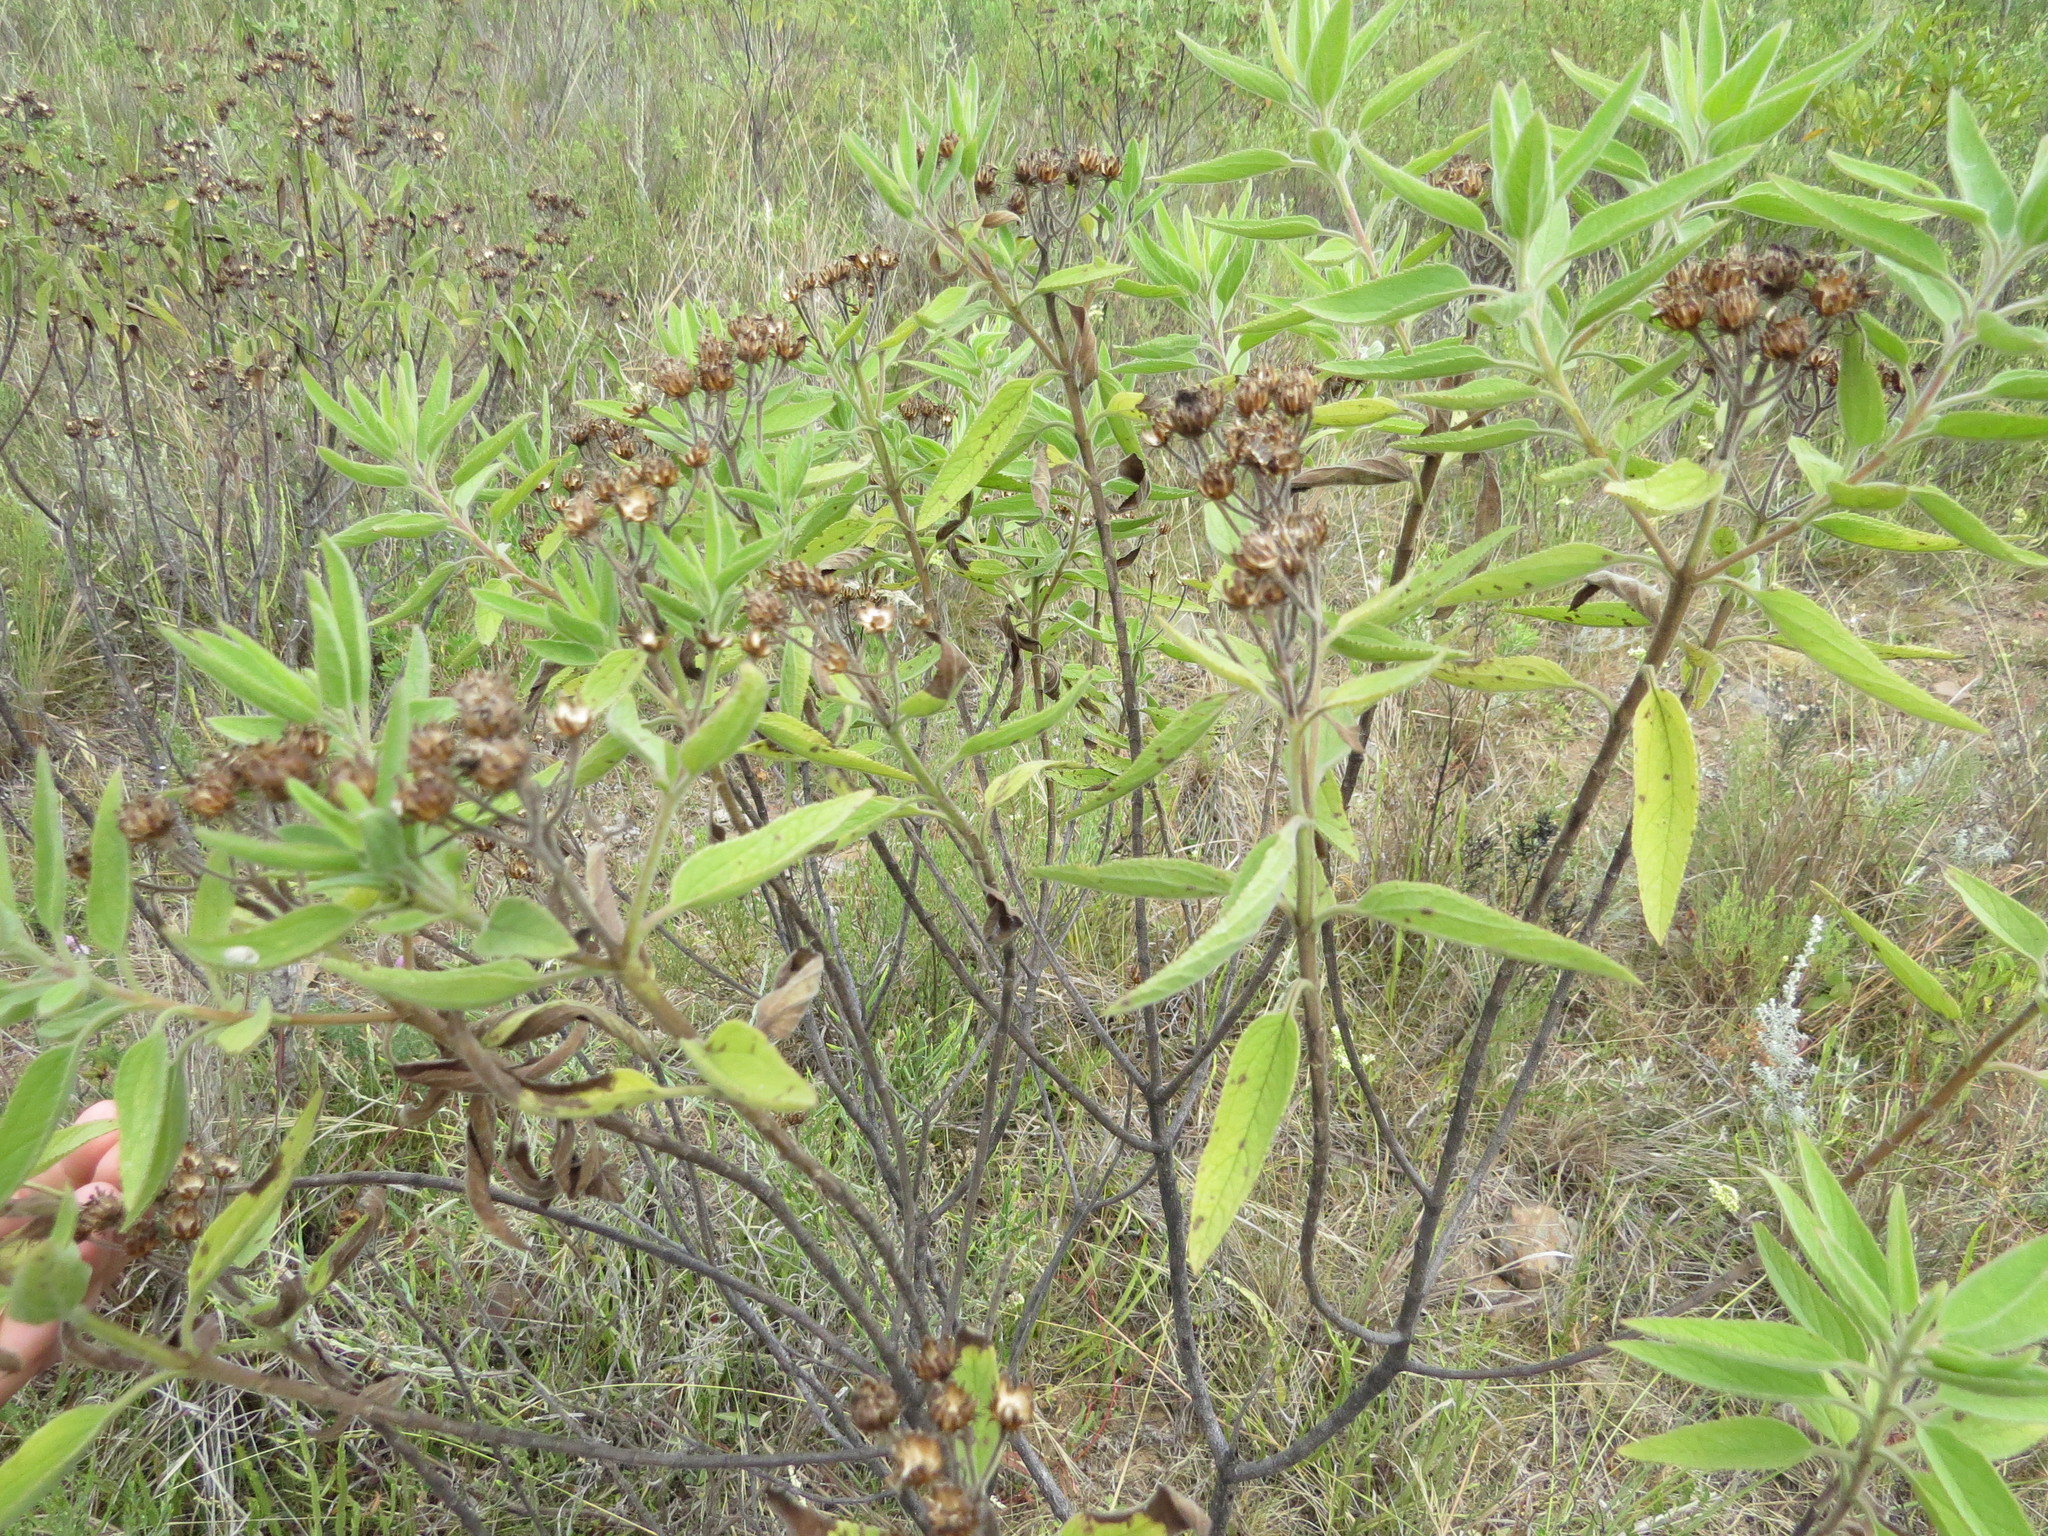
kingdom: Plantae
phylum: Tracheophyta
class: Magnoliopsida
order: Asterales
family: Asteraceae
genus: Radlkoferotoma
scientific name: Radlkoferotoma cistifolium
